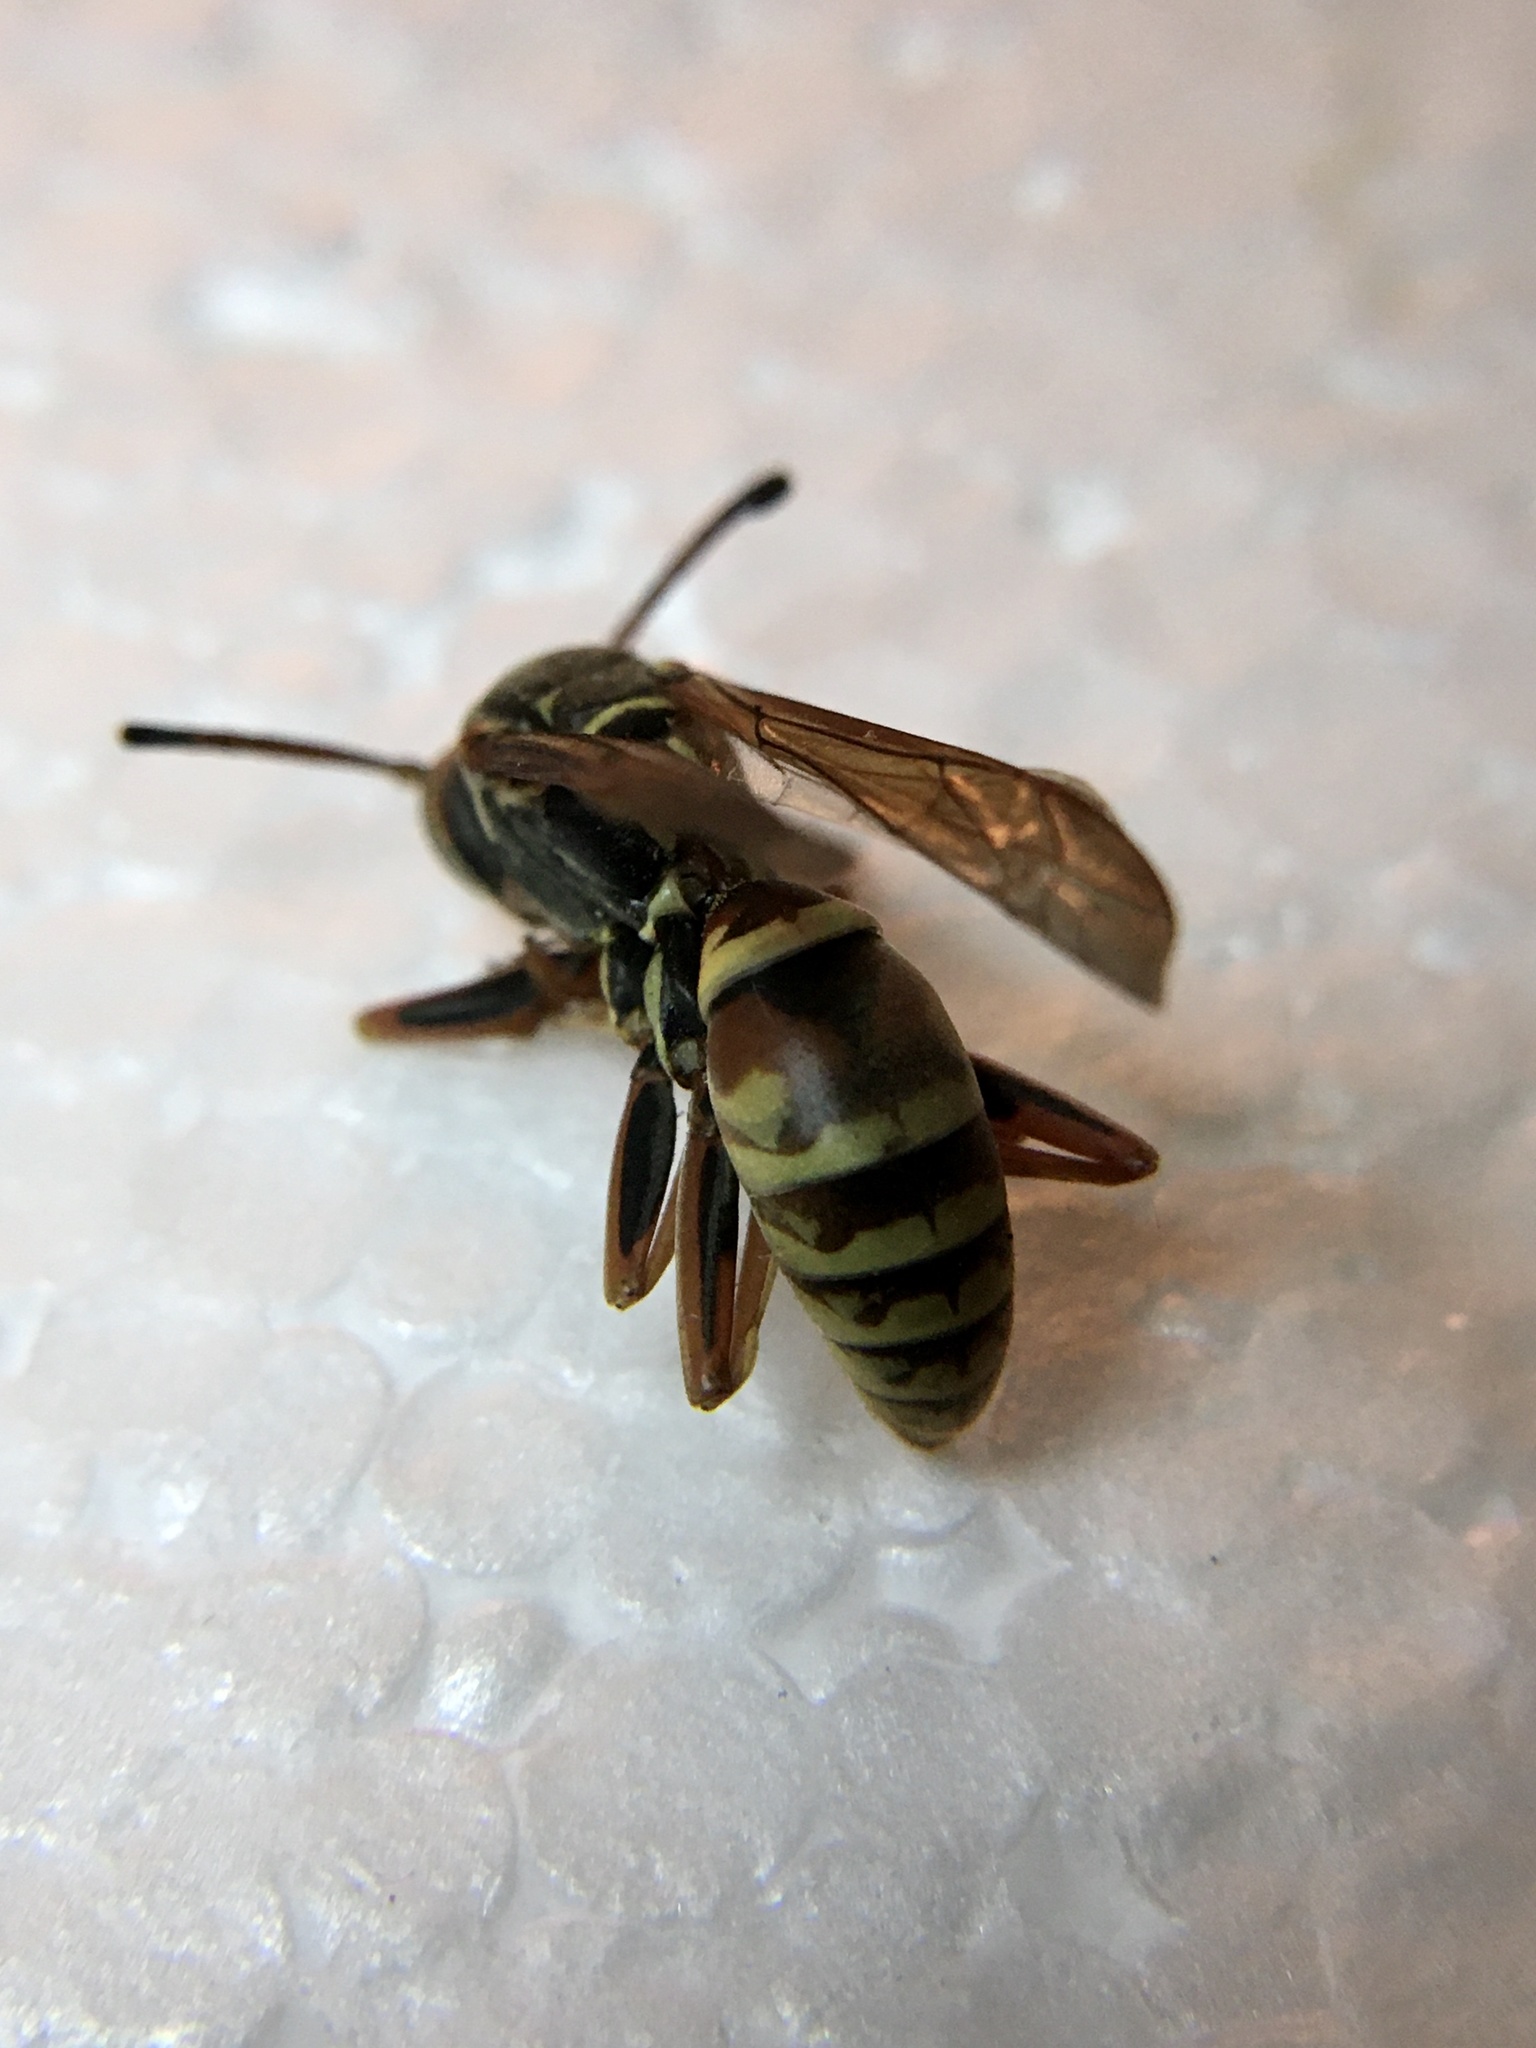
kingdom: Animalia
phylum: Arthropoda
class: Insecta
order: Hymenoptera
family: Eumenidae
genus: Polistes
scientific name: Polistes fuscatus
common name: Dark paper wasp
